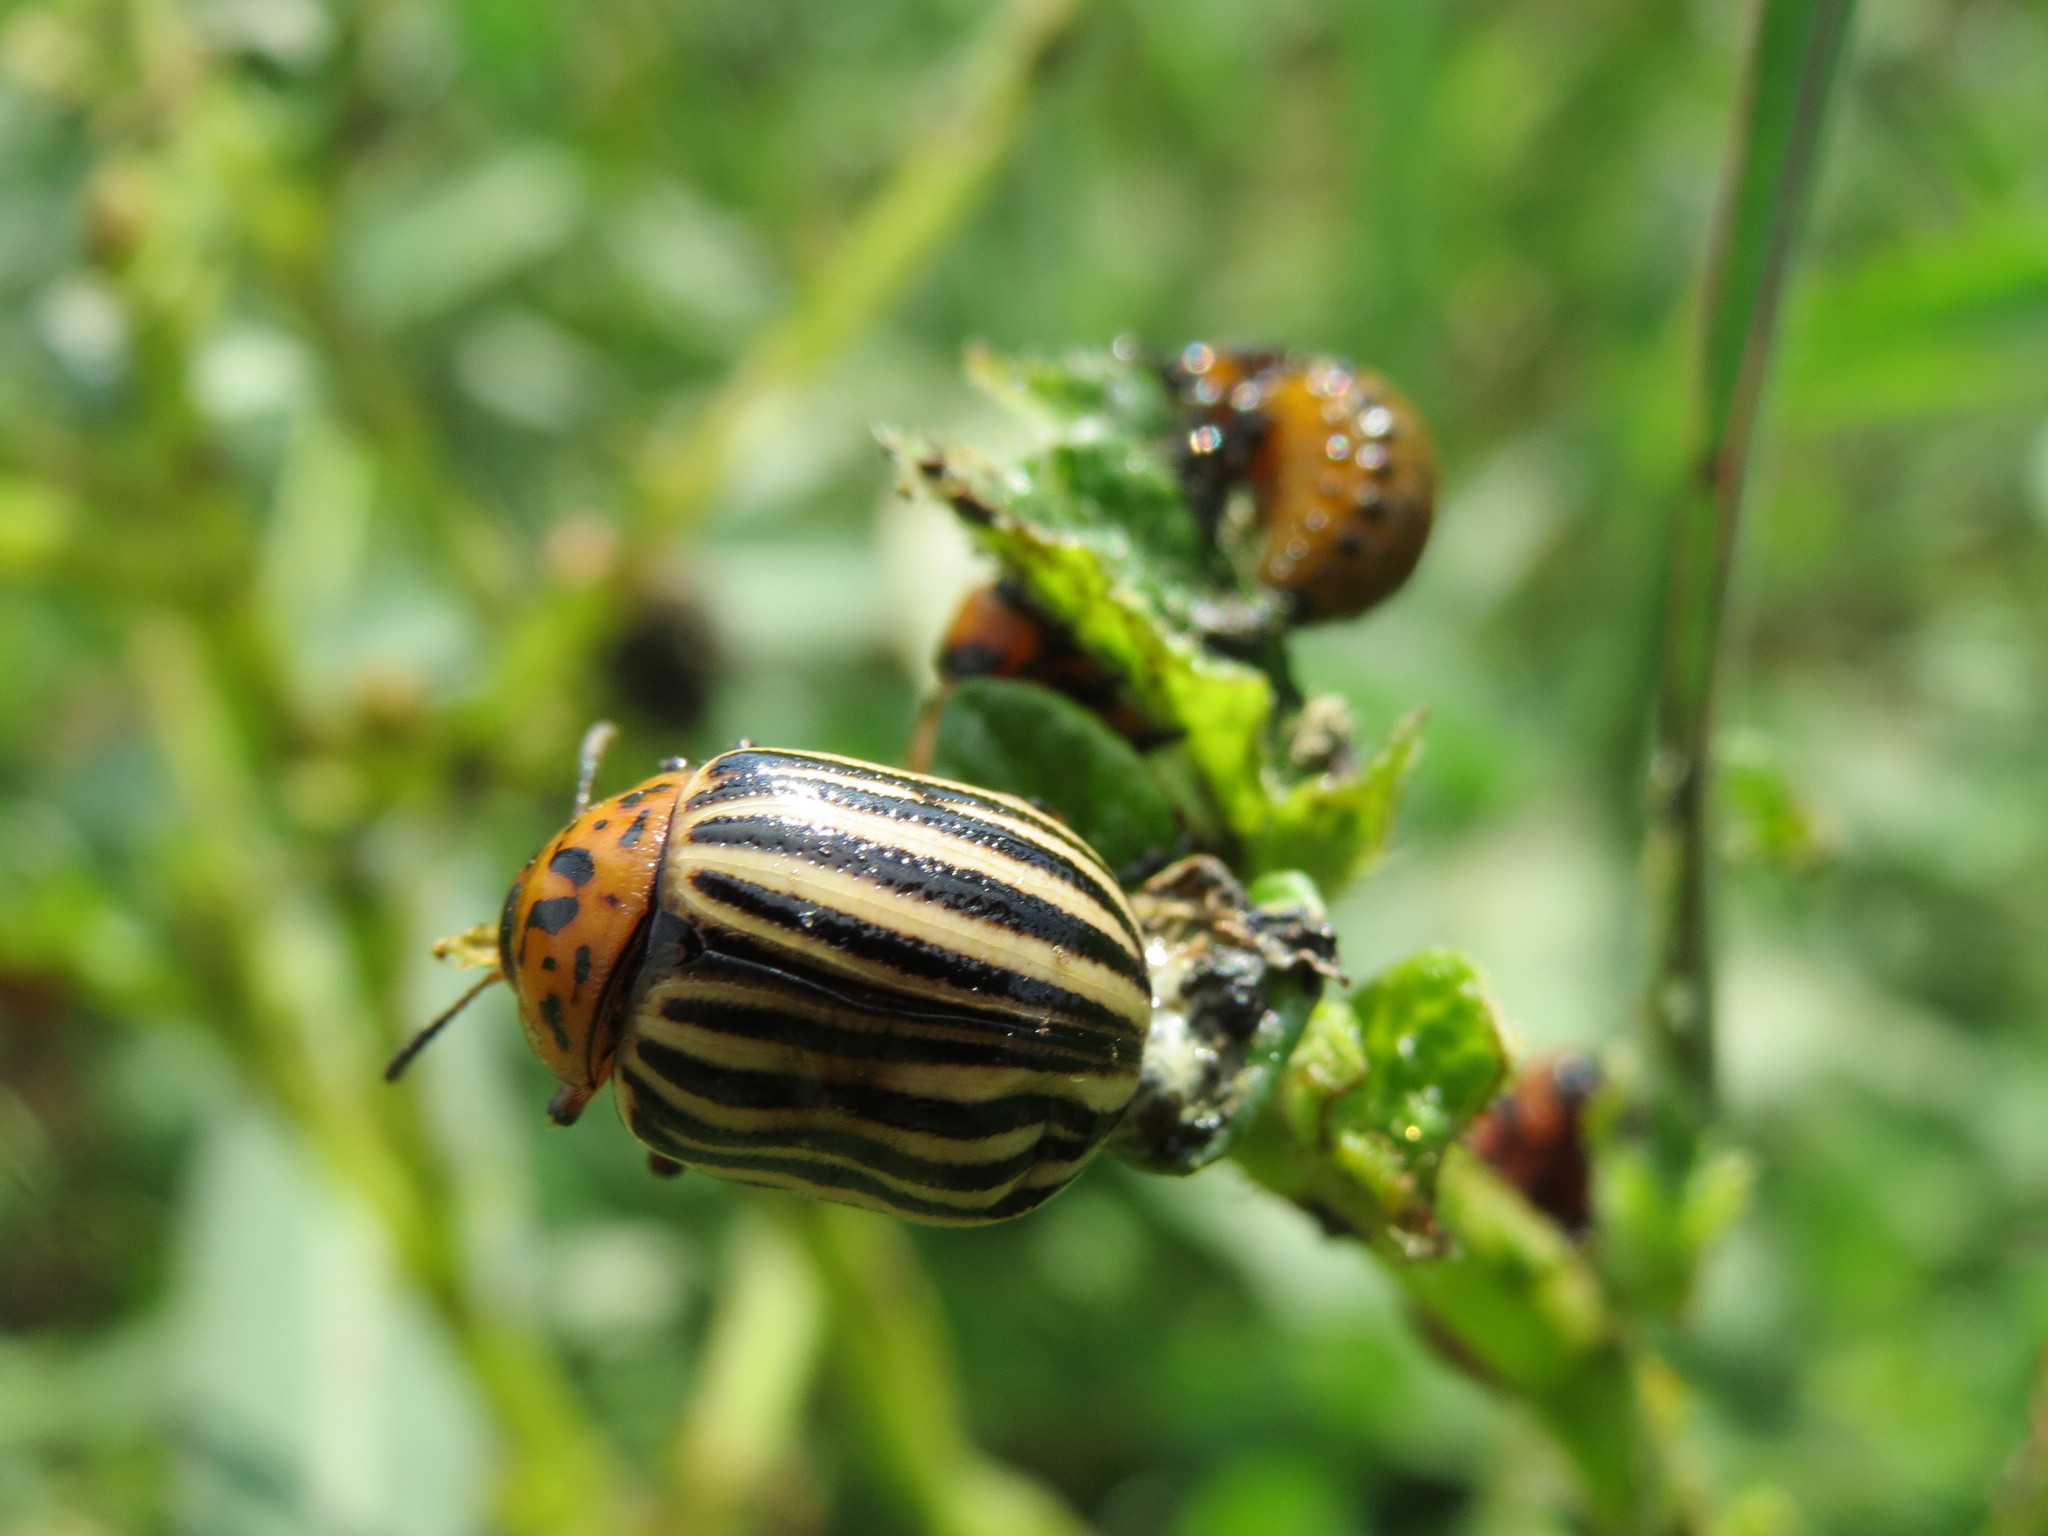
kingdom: Animalia
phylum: Arthropoda
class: Insecta
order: Coleoptera
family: Chrysomelidae
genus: Leptinotarsa
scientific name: Leptinotarsa decemlineata
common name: Colorado potato beetle
